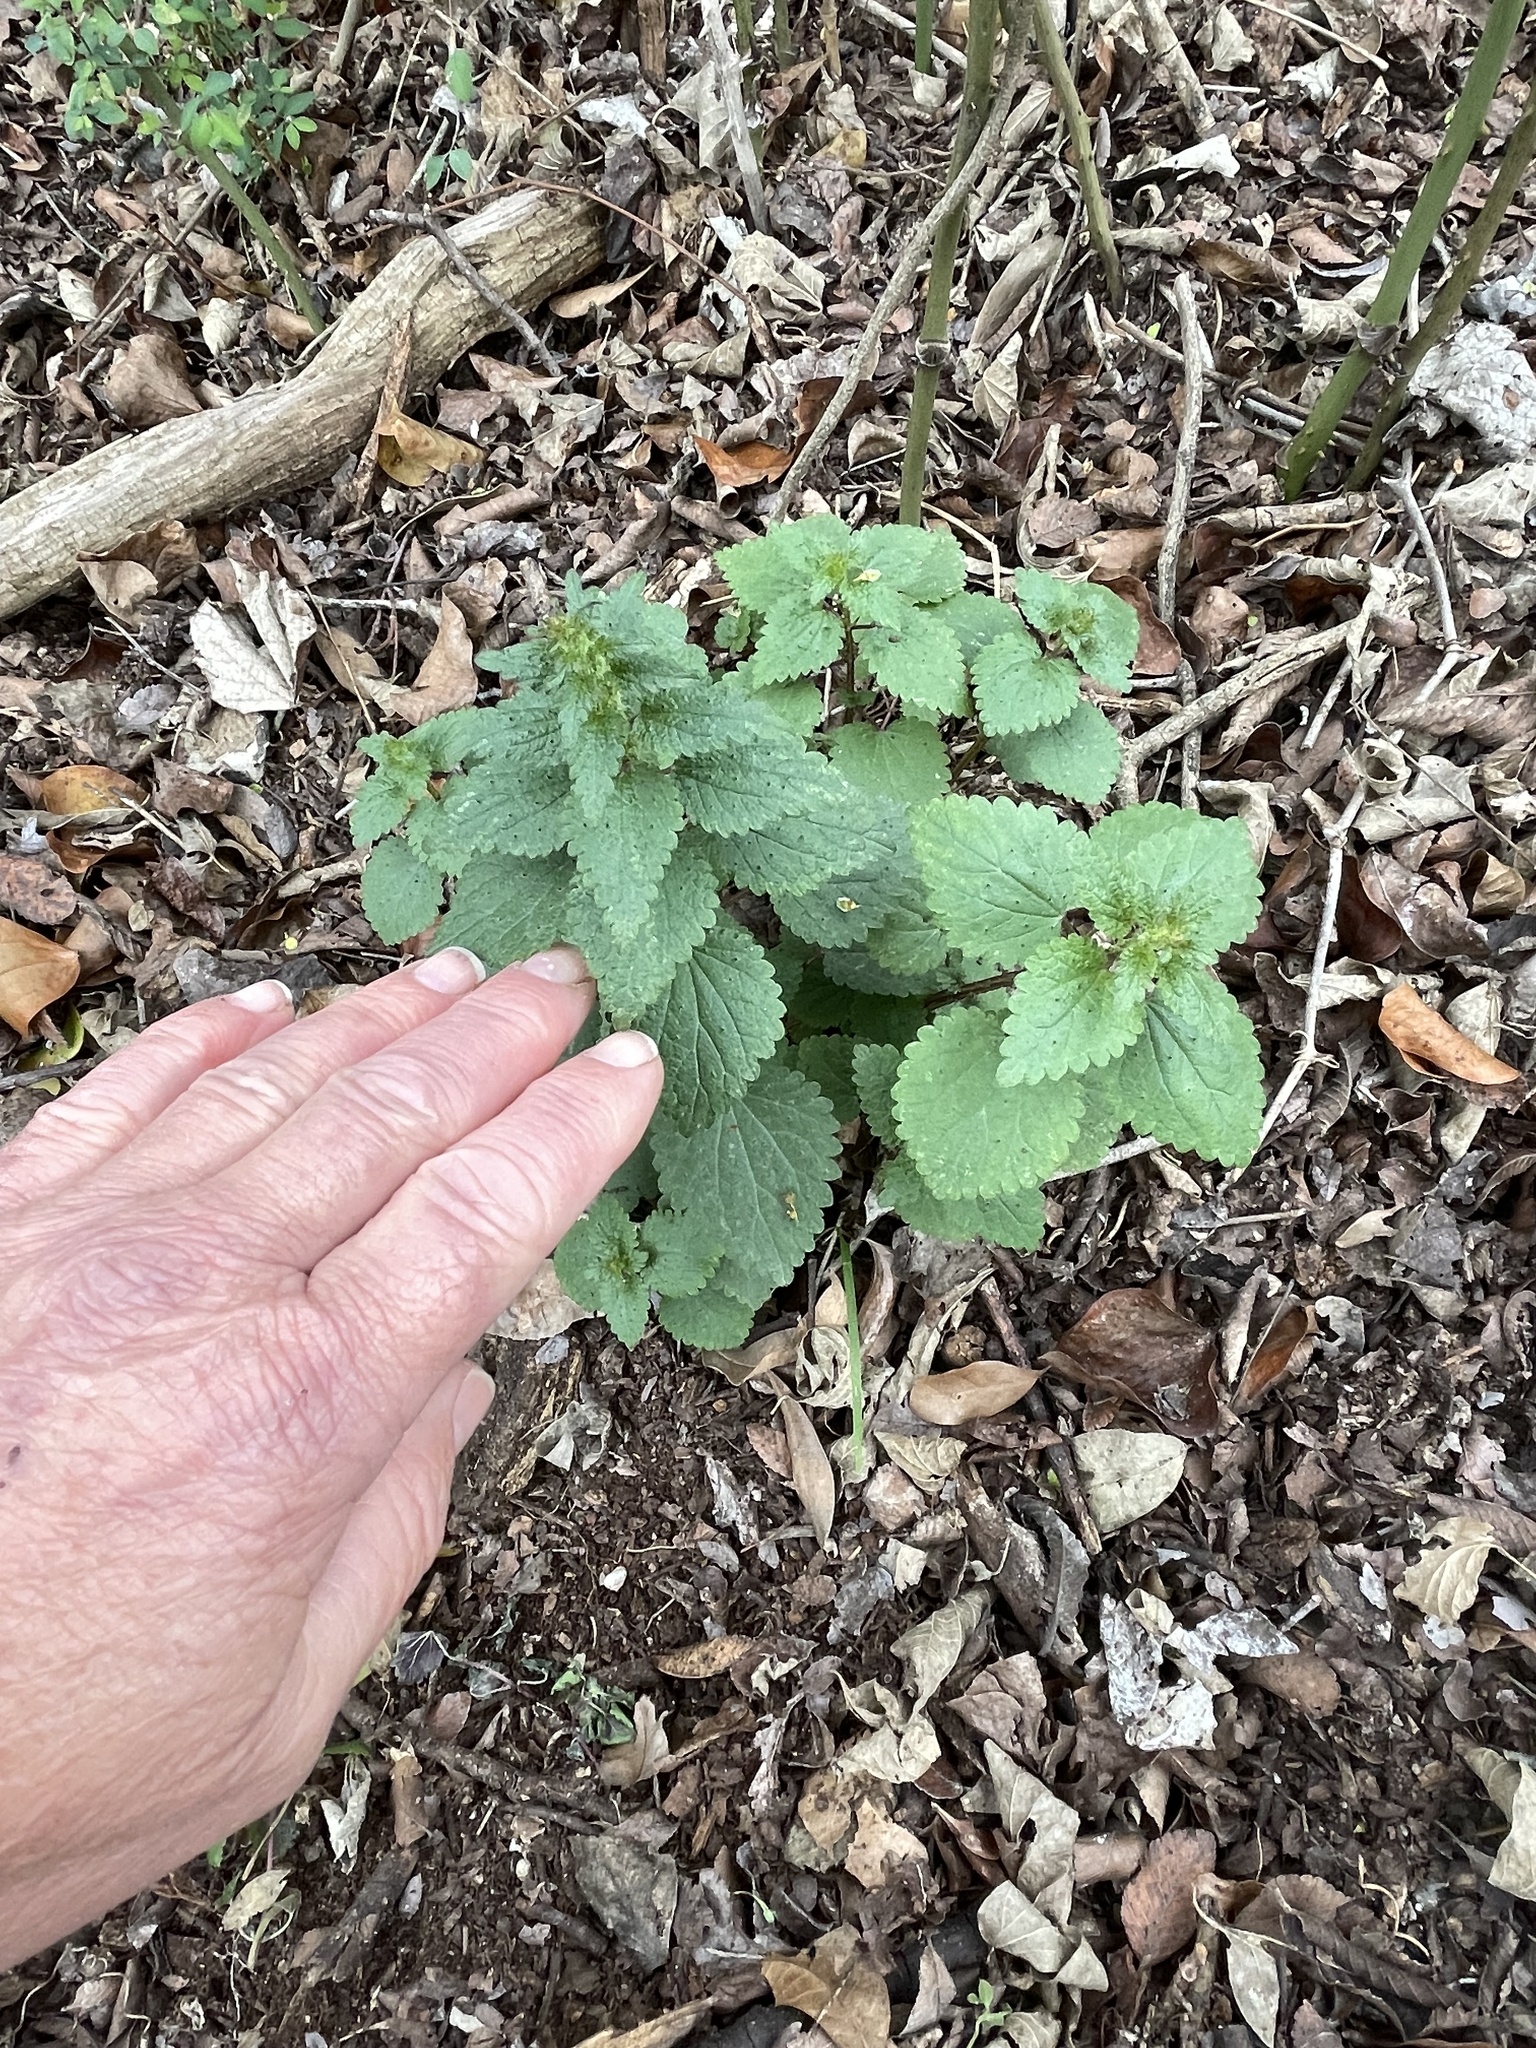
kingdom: Plantae
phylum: Tracheophyta
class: Magnoliopsida
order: Rosales
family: Urticaceae
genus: Urtica
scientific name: Urtica chamaedryoides
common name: Heart-leaf nettle
